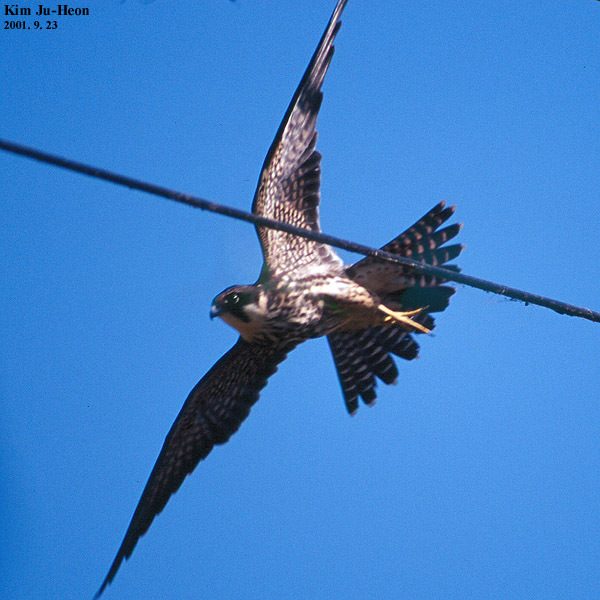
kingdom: Animalia
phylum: Chordata
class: Aves
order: Falconiformes
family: Falconidae
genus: Falco
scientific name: Falco subbuteo
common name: Eurasian hobby
